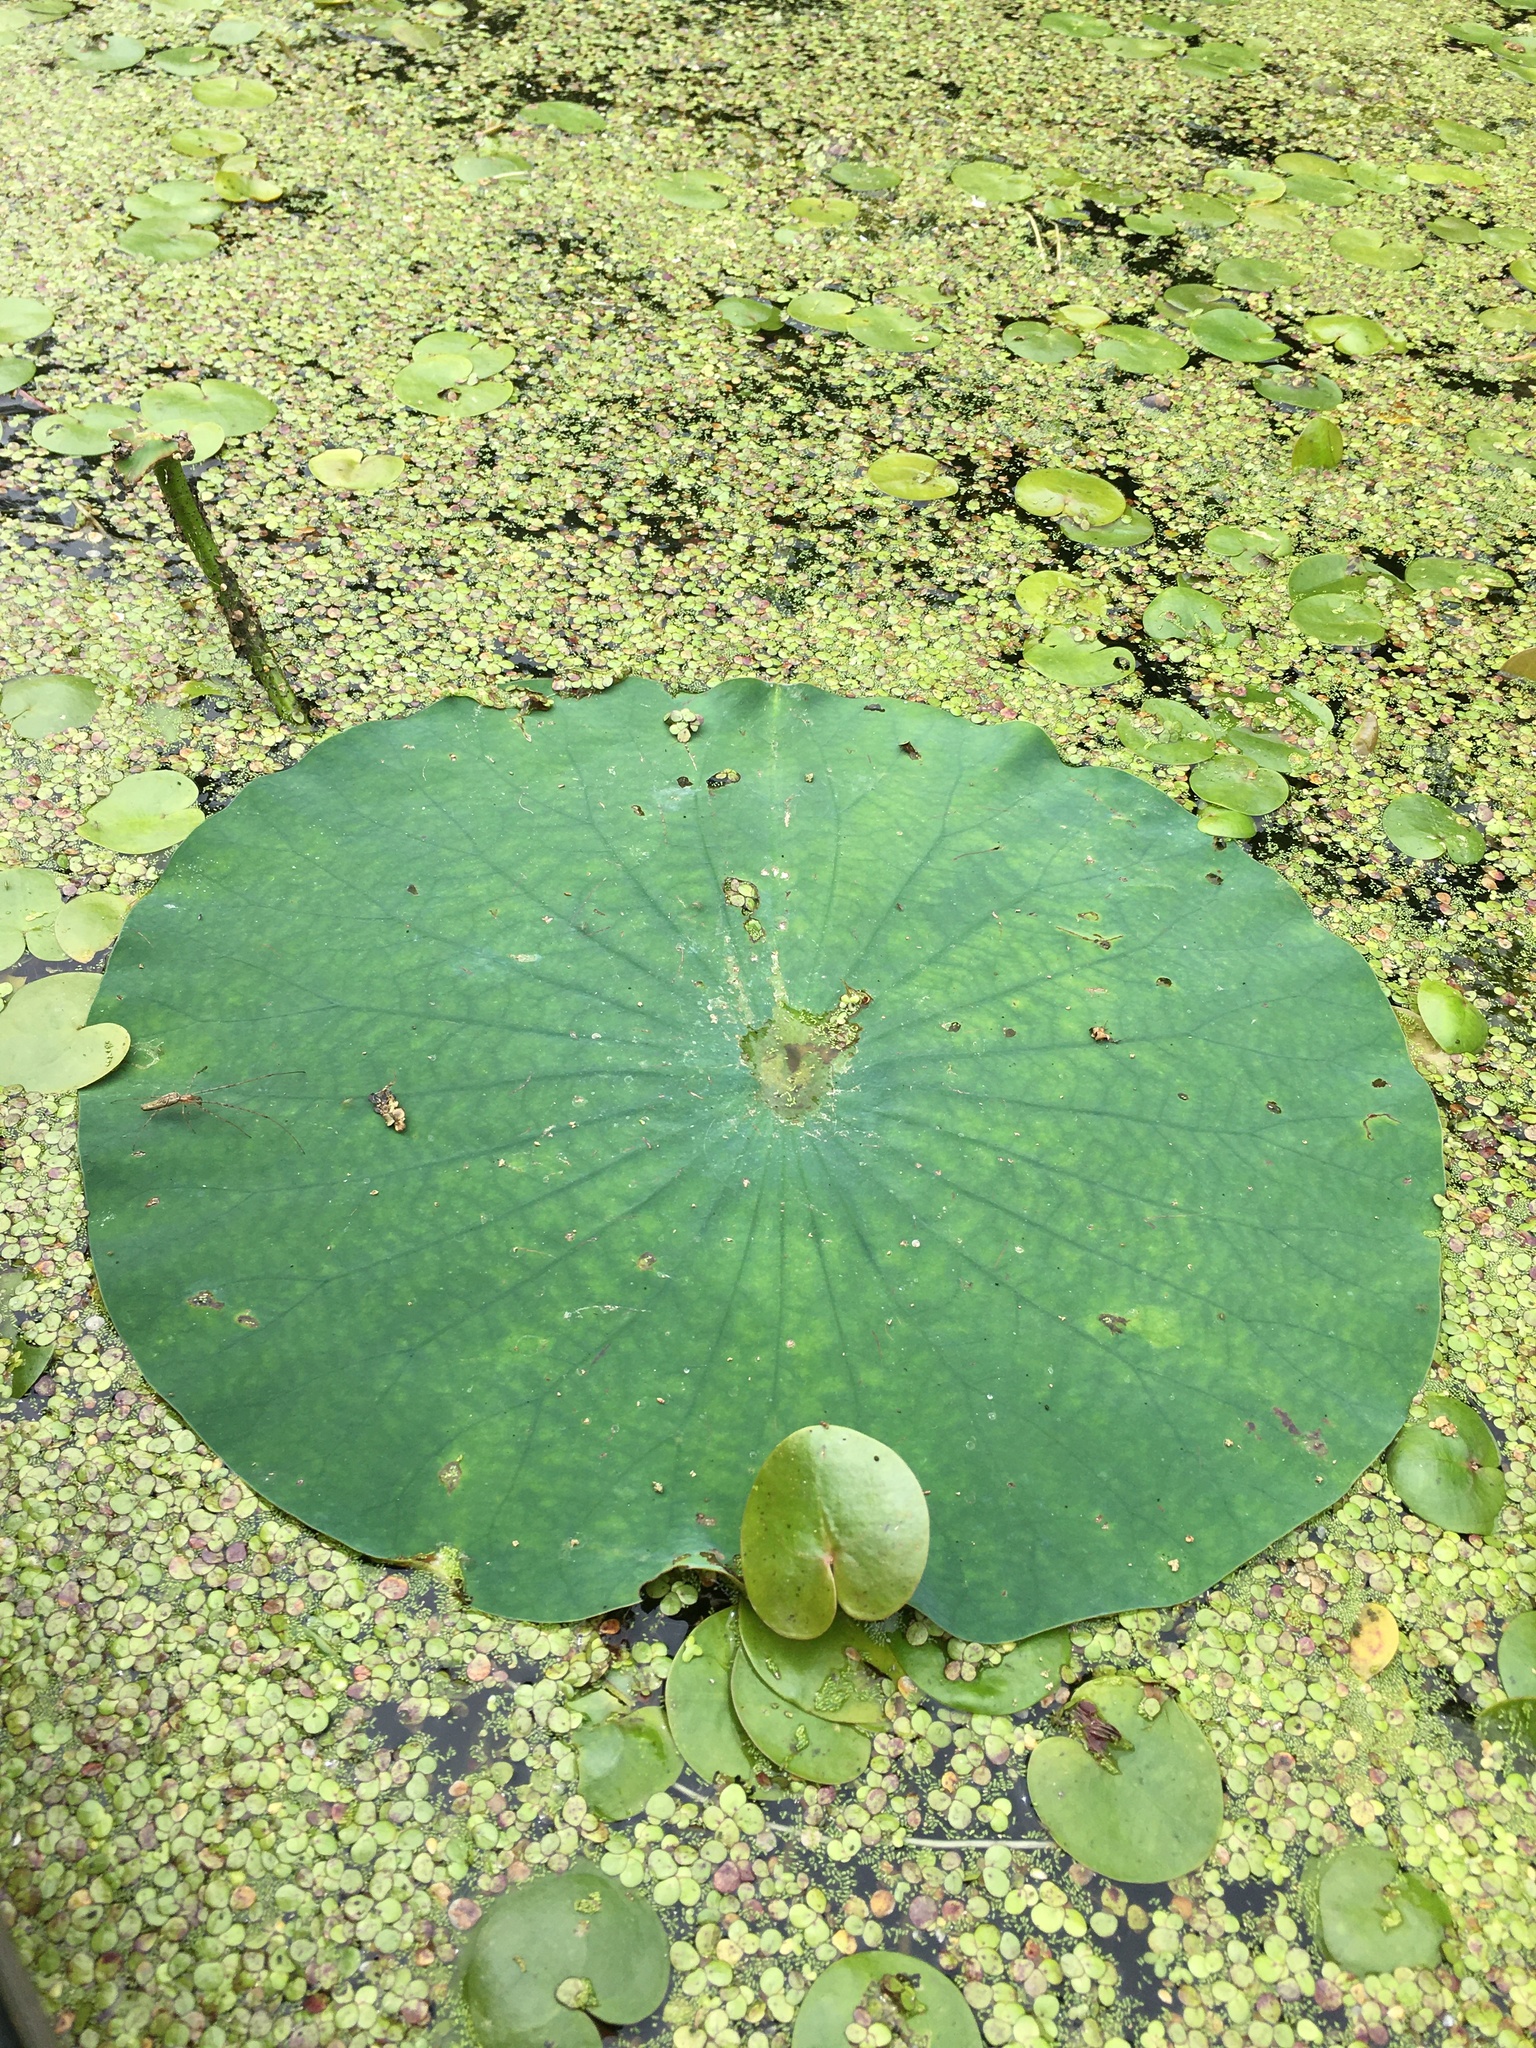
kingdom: Plantae
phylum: Tracheophyta
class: Magnoliopsida
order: Proteales
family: Nelumbonaceae
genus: Nelumbo
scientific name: Nelumbo lutea
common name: American lotus
